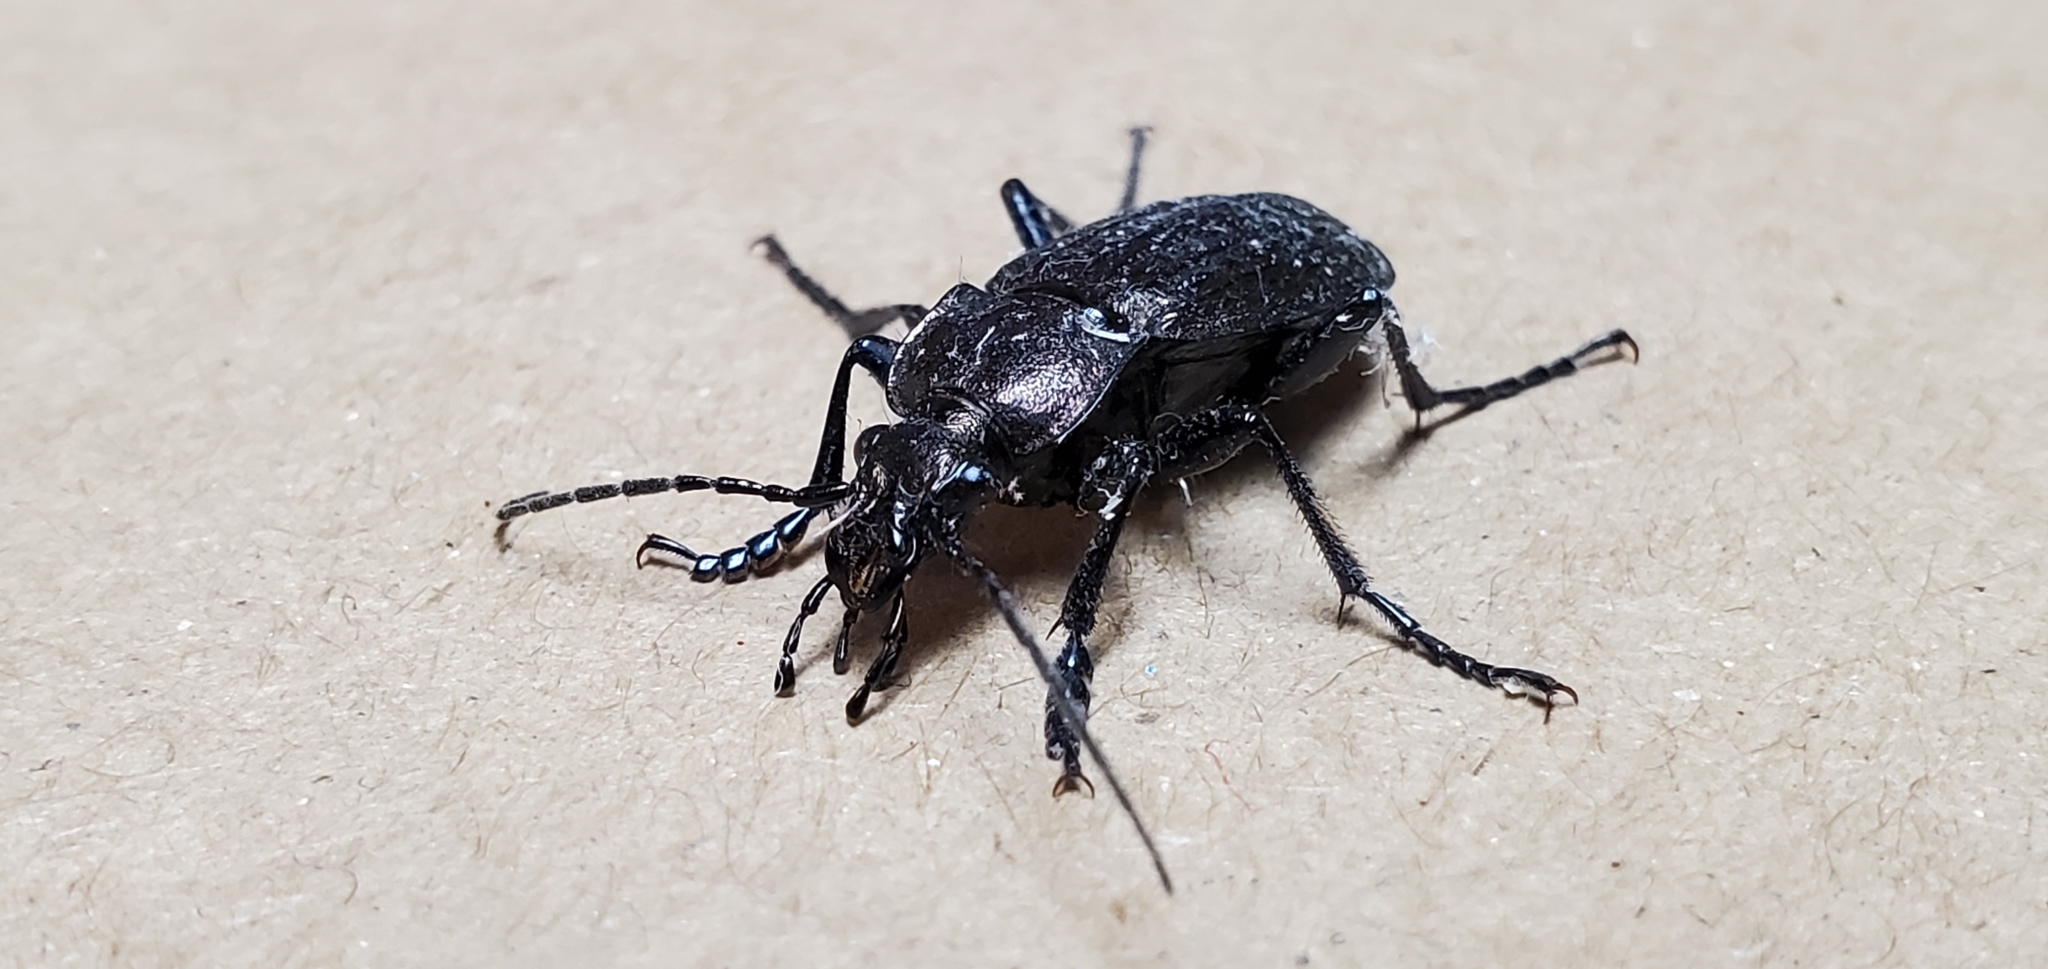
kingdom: Animalia
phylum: Arthropoda
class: Insecta
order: Coleoptera
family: Carabidae
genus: Carabus
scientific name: Carabus granulatus
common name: Granulate ground beetle
